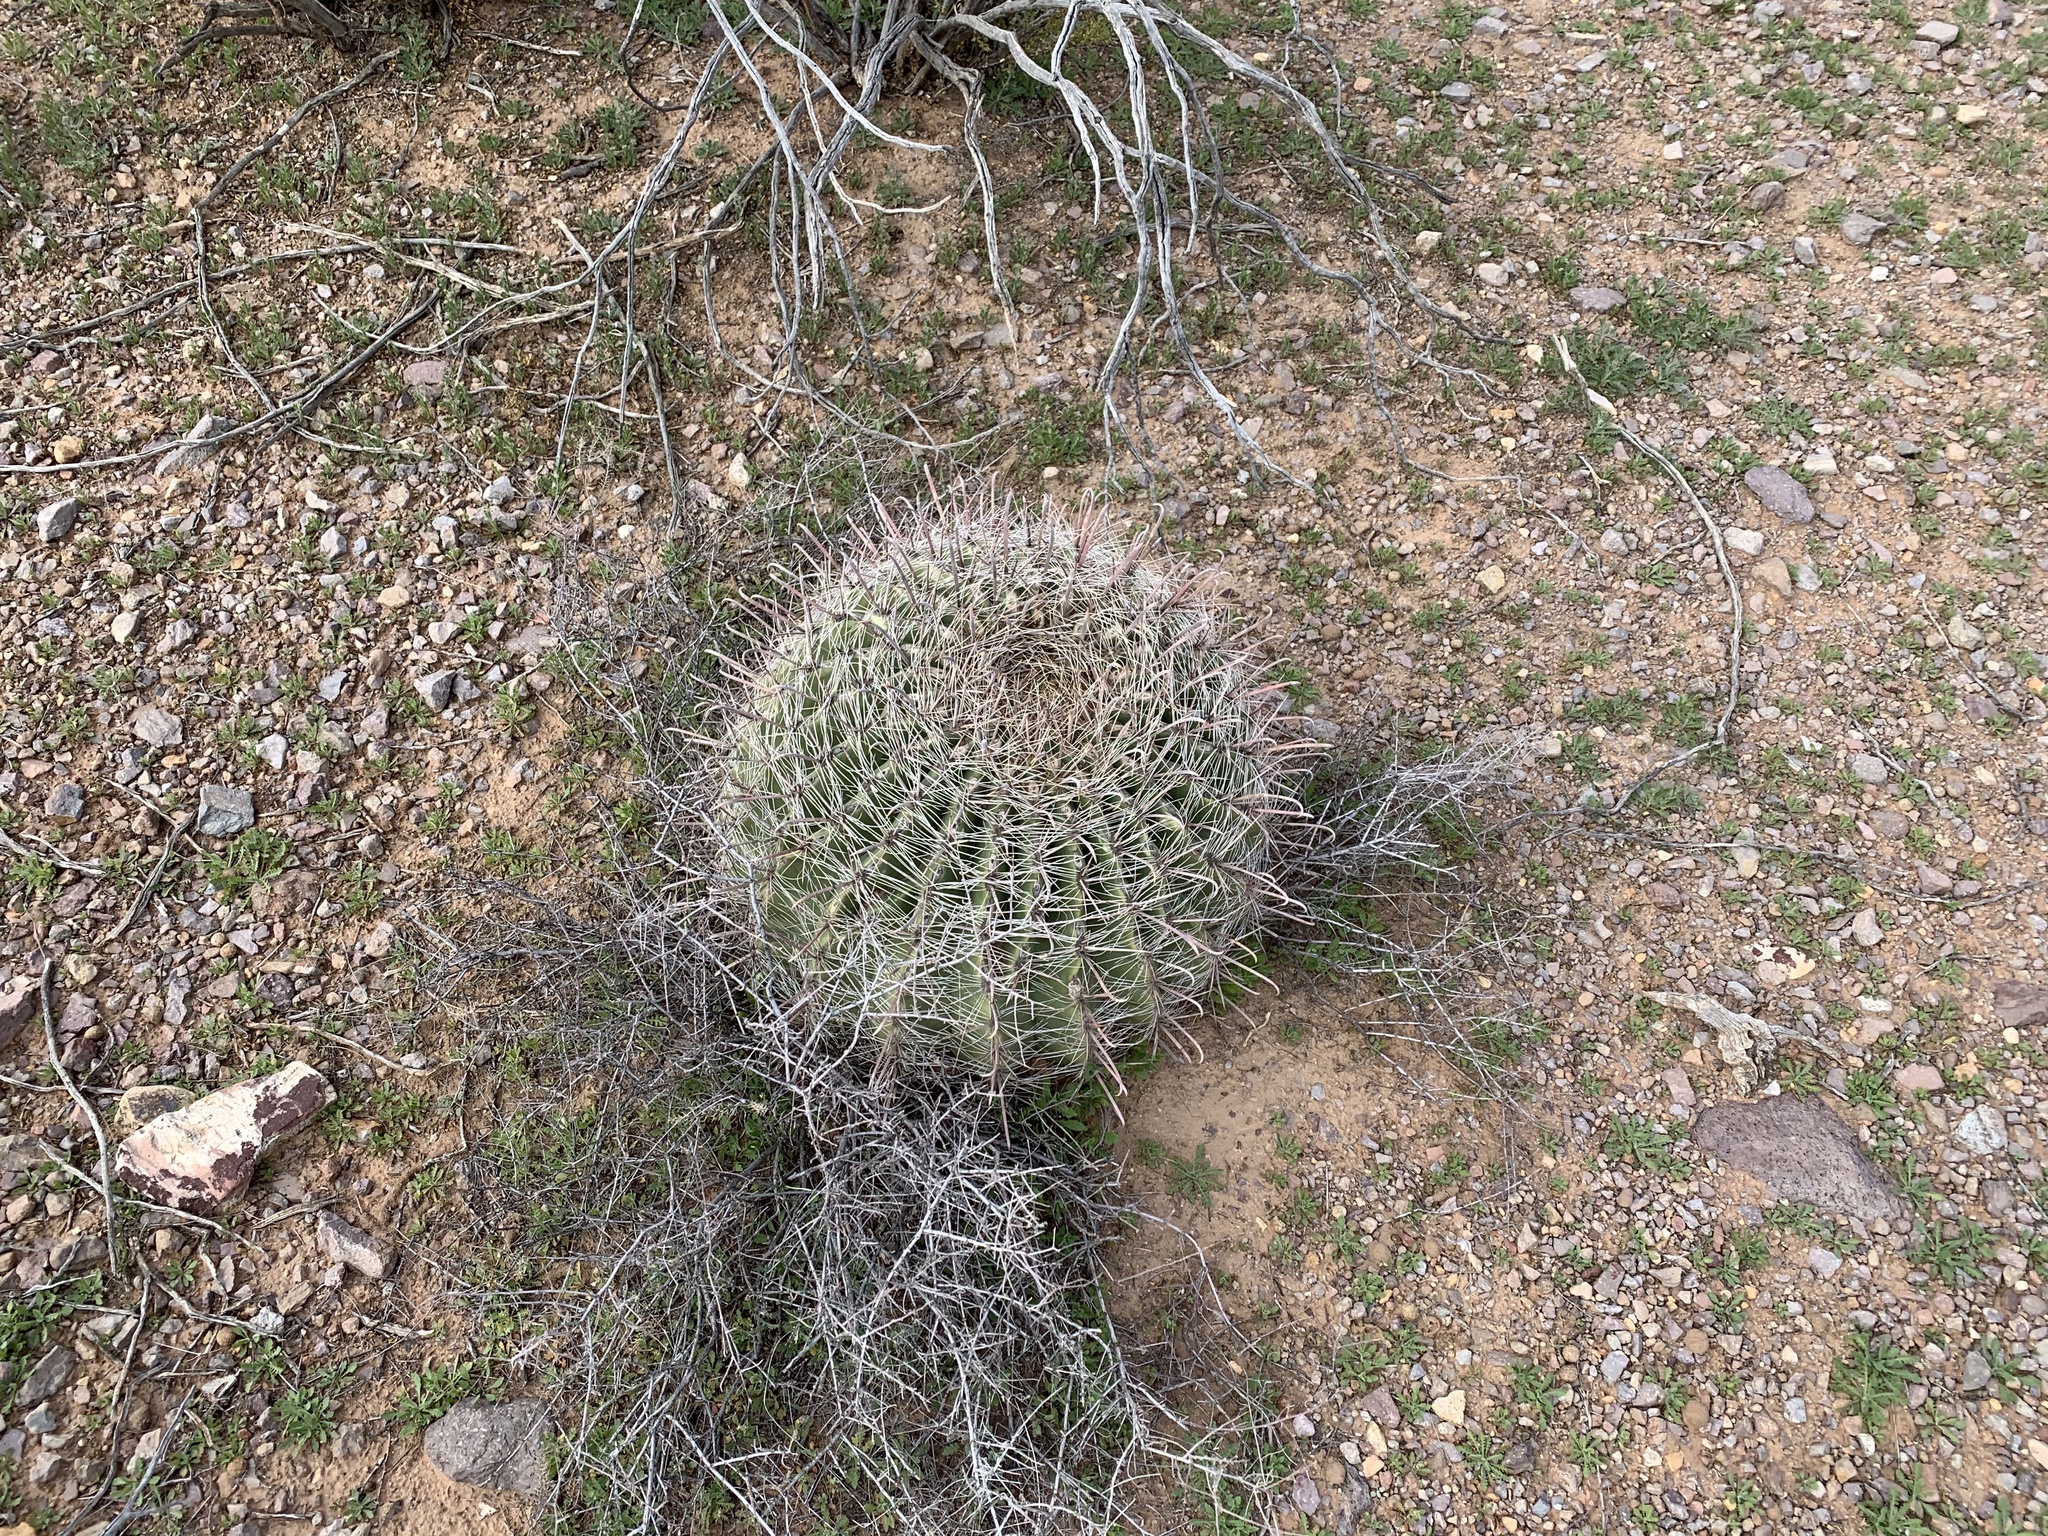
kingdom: Plantae
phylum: Tracheophyta
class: Magnoliopsida
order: Caryophyllales
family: Cactaceae
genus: Ferocactus
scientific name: Ferocactus wislizeni
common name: Candy barrel cactus
